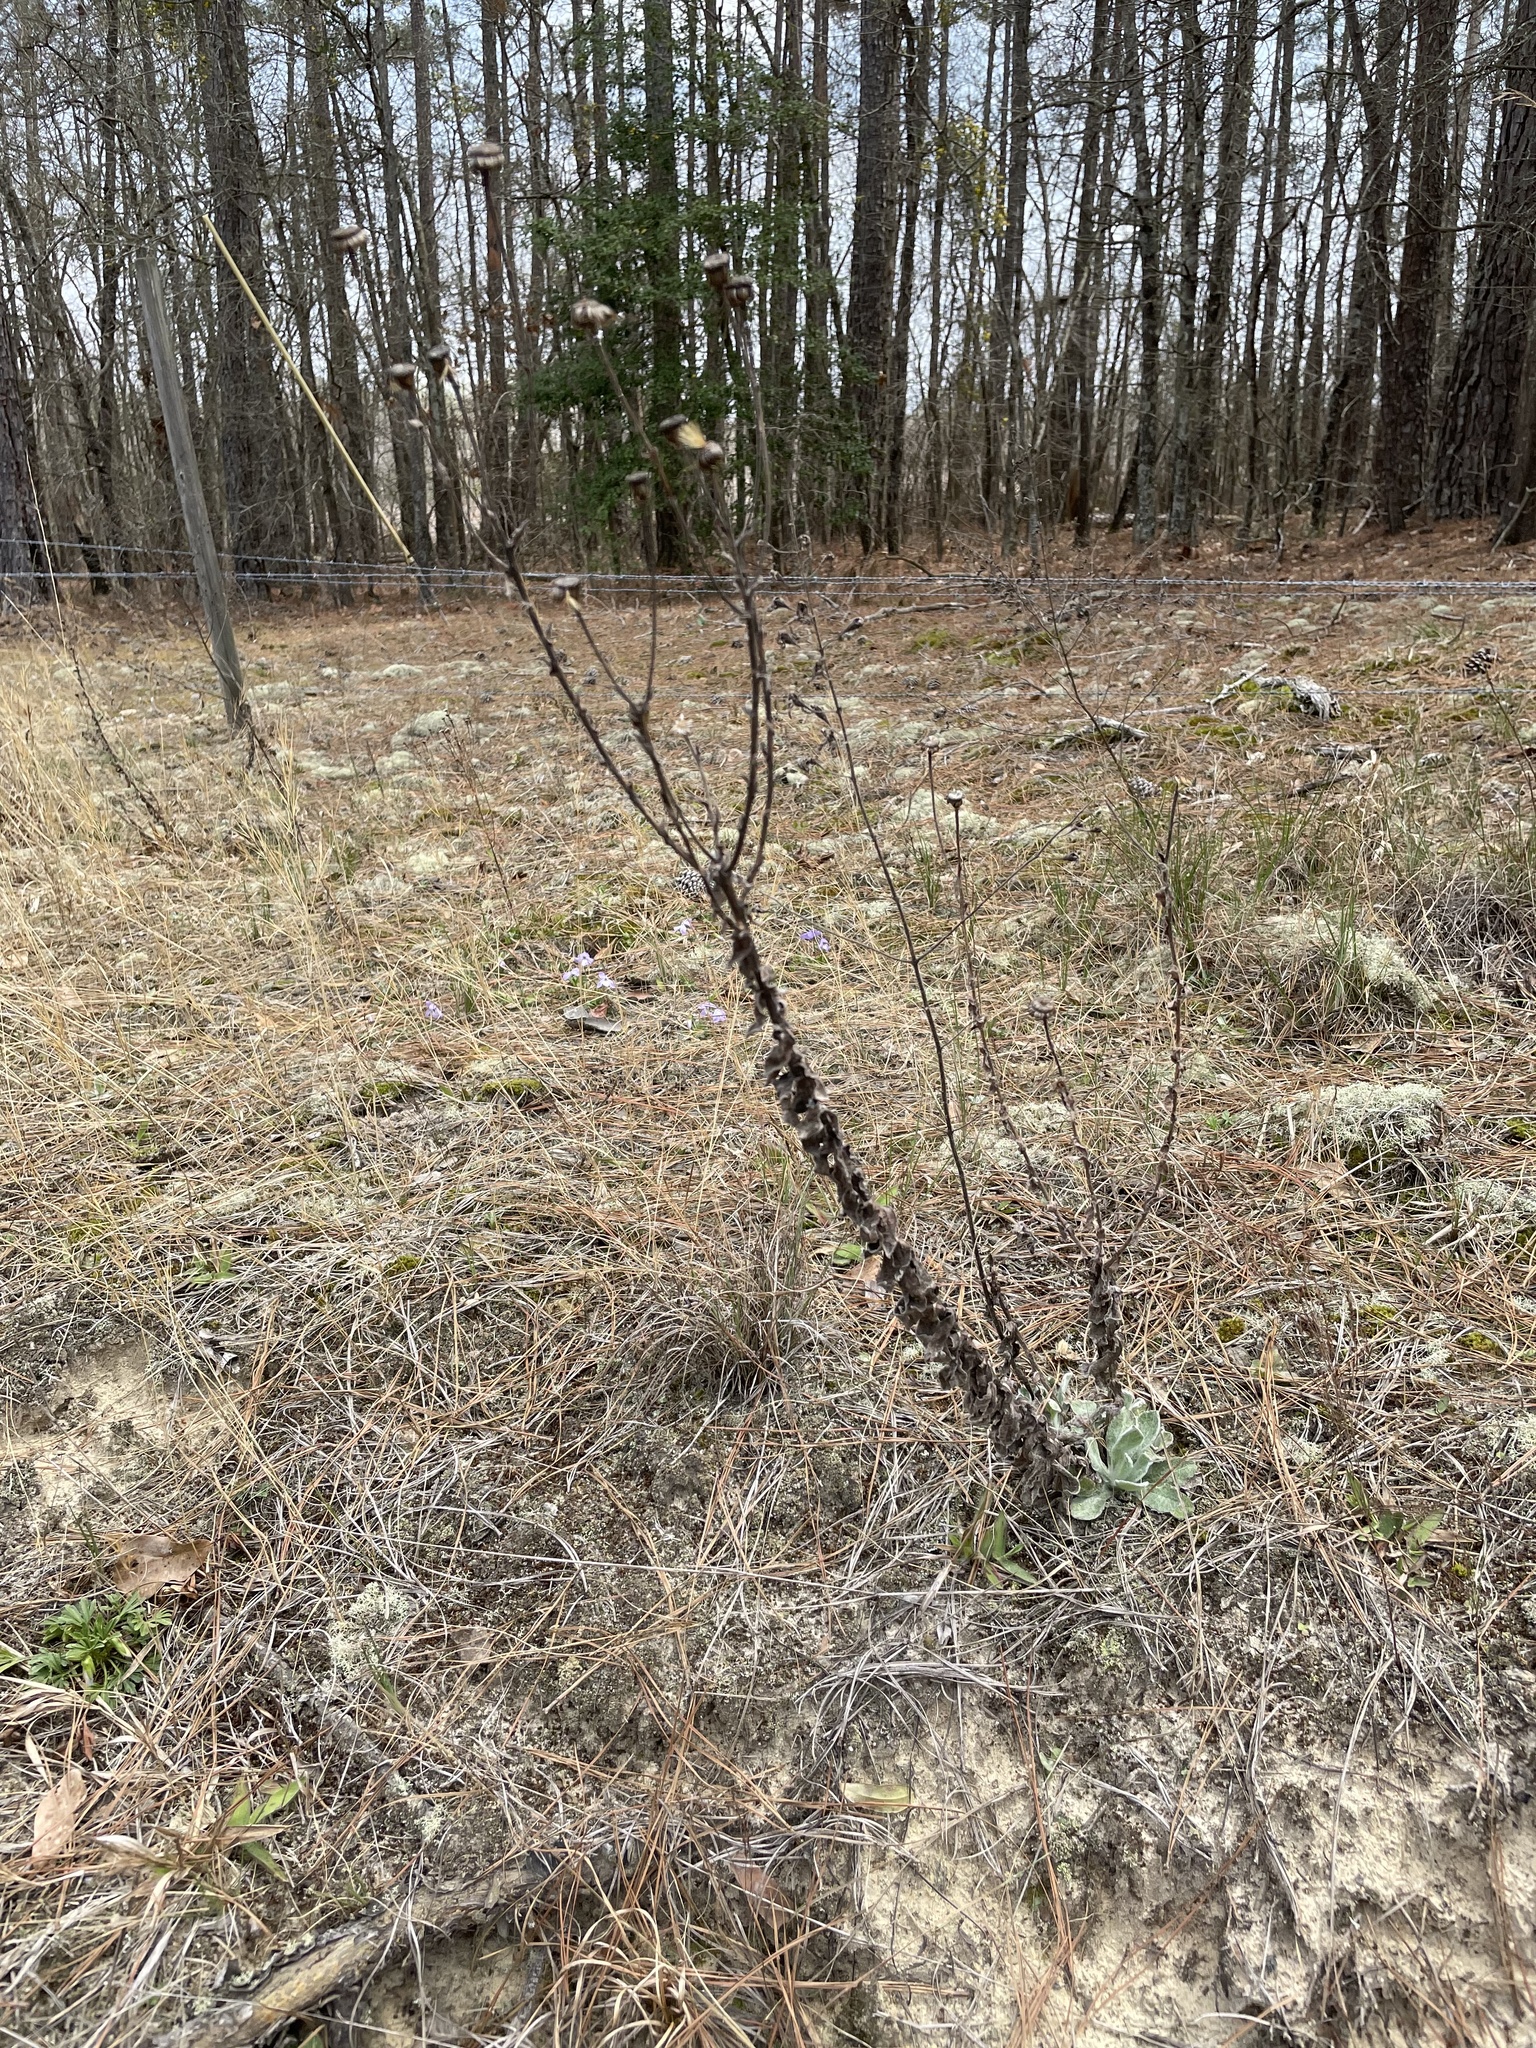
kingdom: Plantae
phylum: Tracheophyta
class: Magnoliopsida
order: Asterales
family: Asteraceae
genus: Chrysopsis
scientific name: Chrysopsis gossypina
